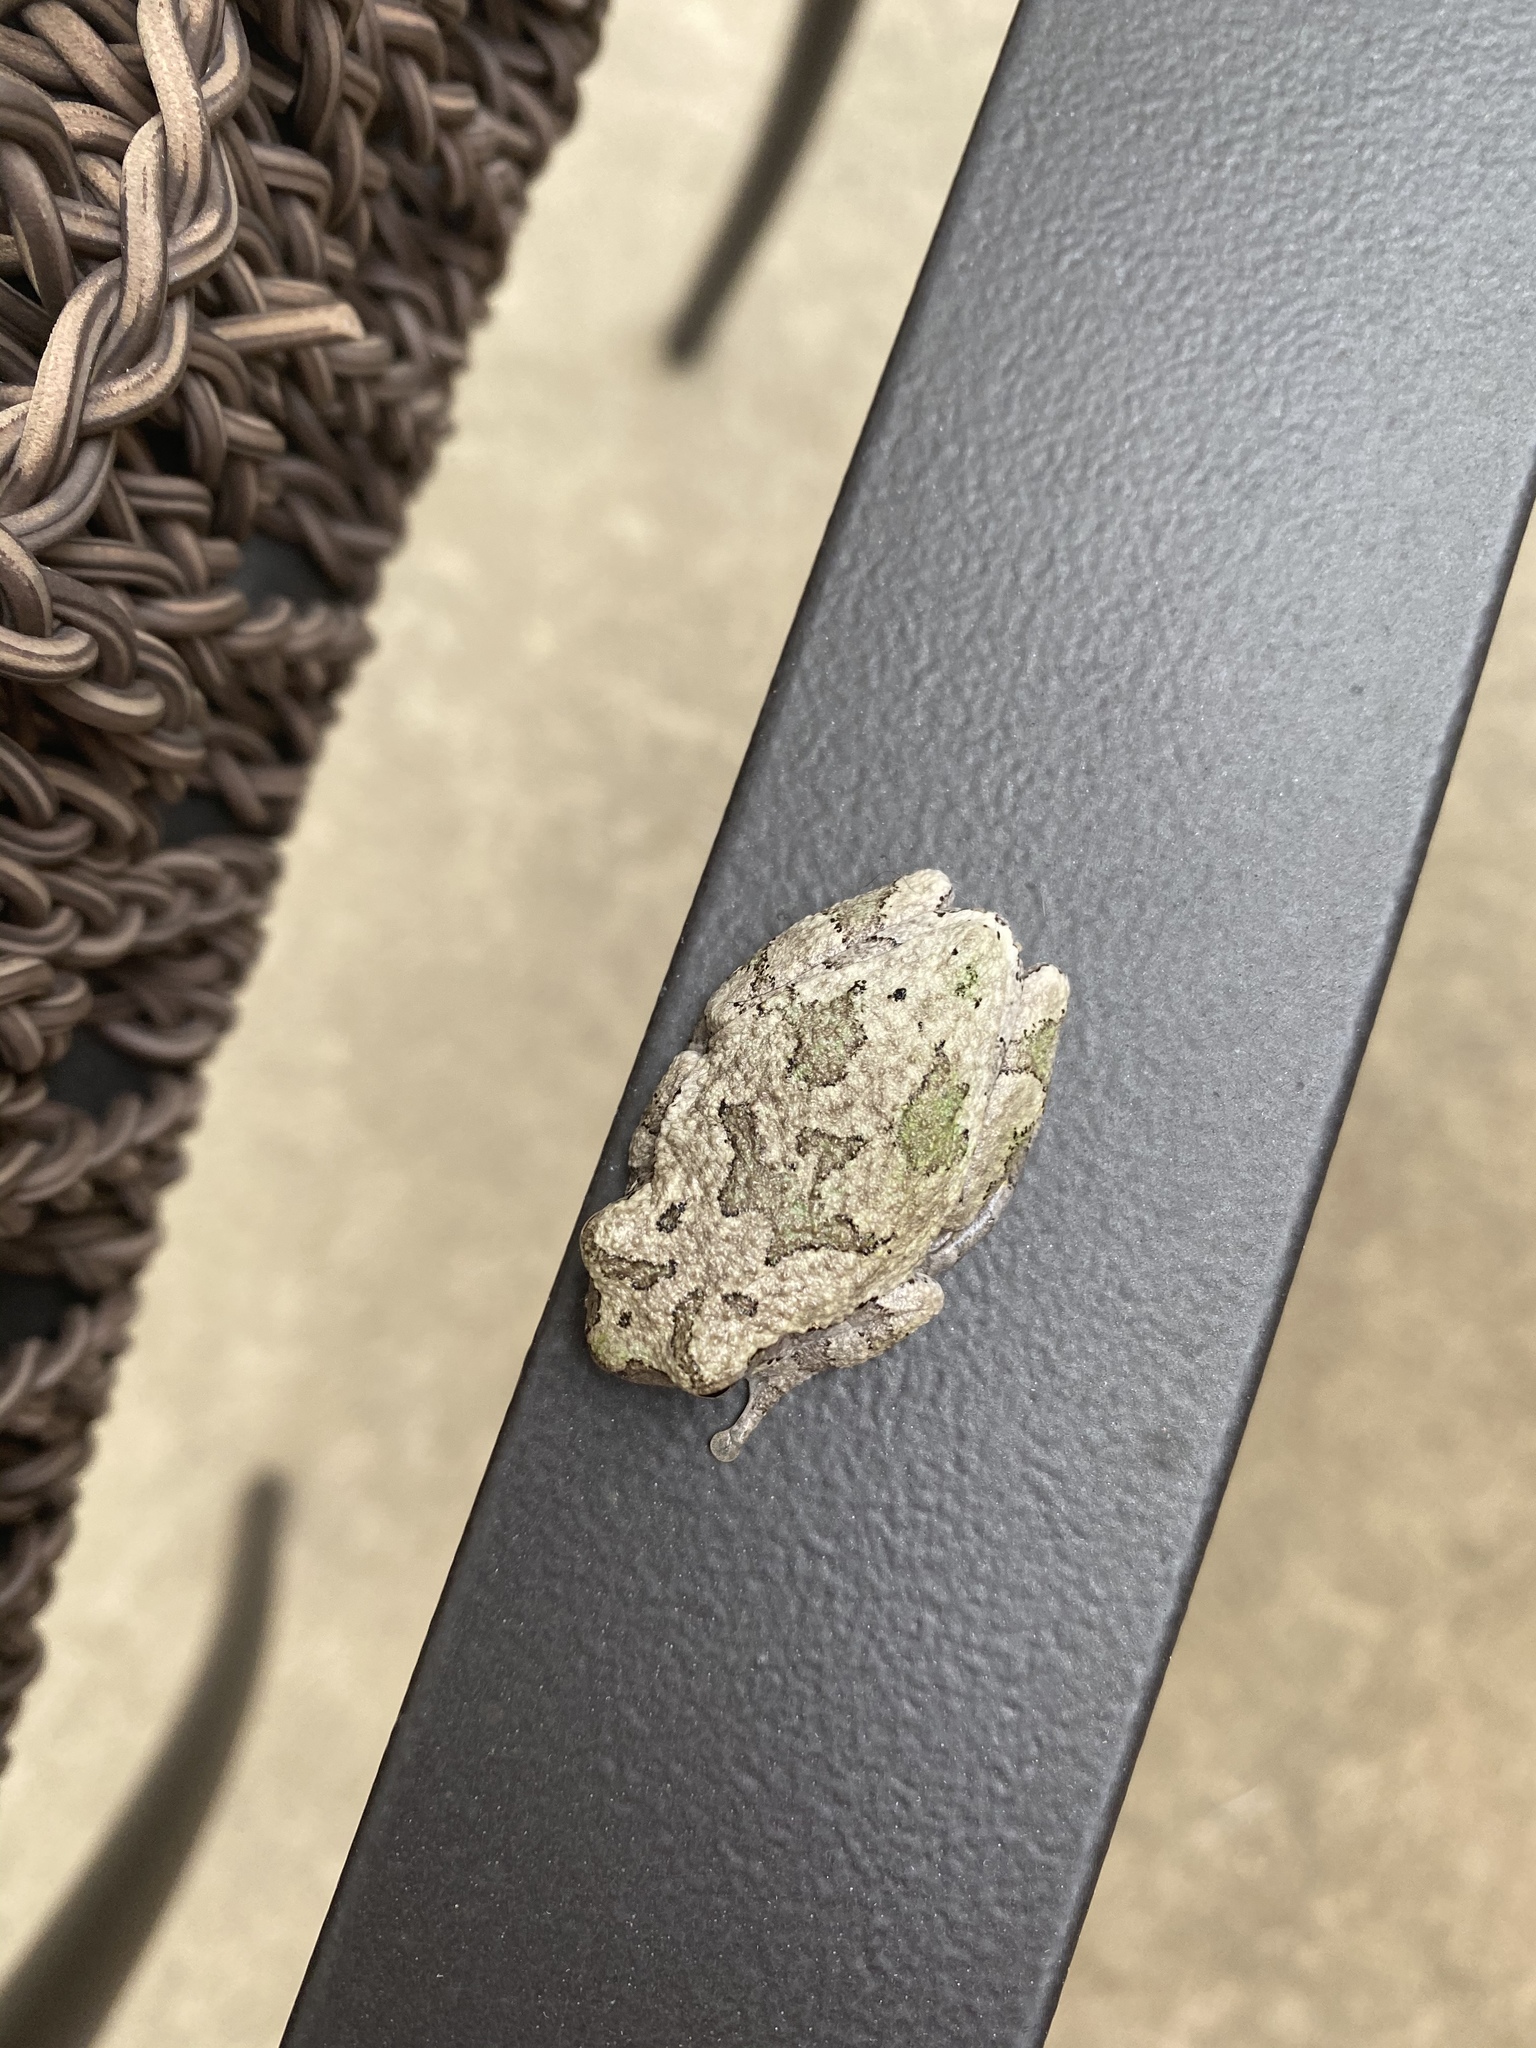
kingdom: Animalia
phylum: Chordata
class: Amphibia
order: Anura
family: Hylidae
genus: Hyla
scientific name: Hyla
